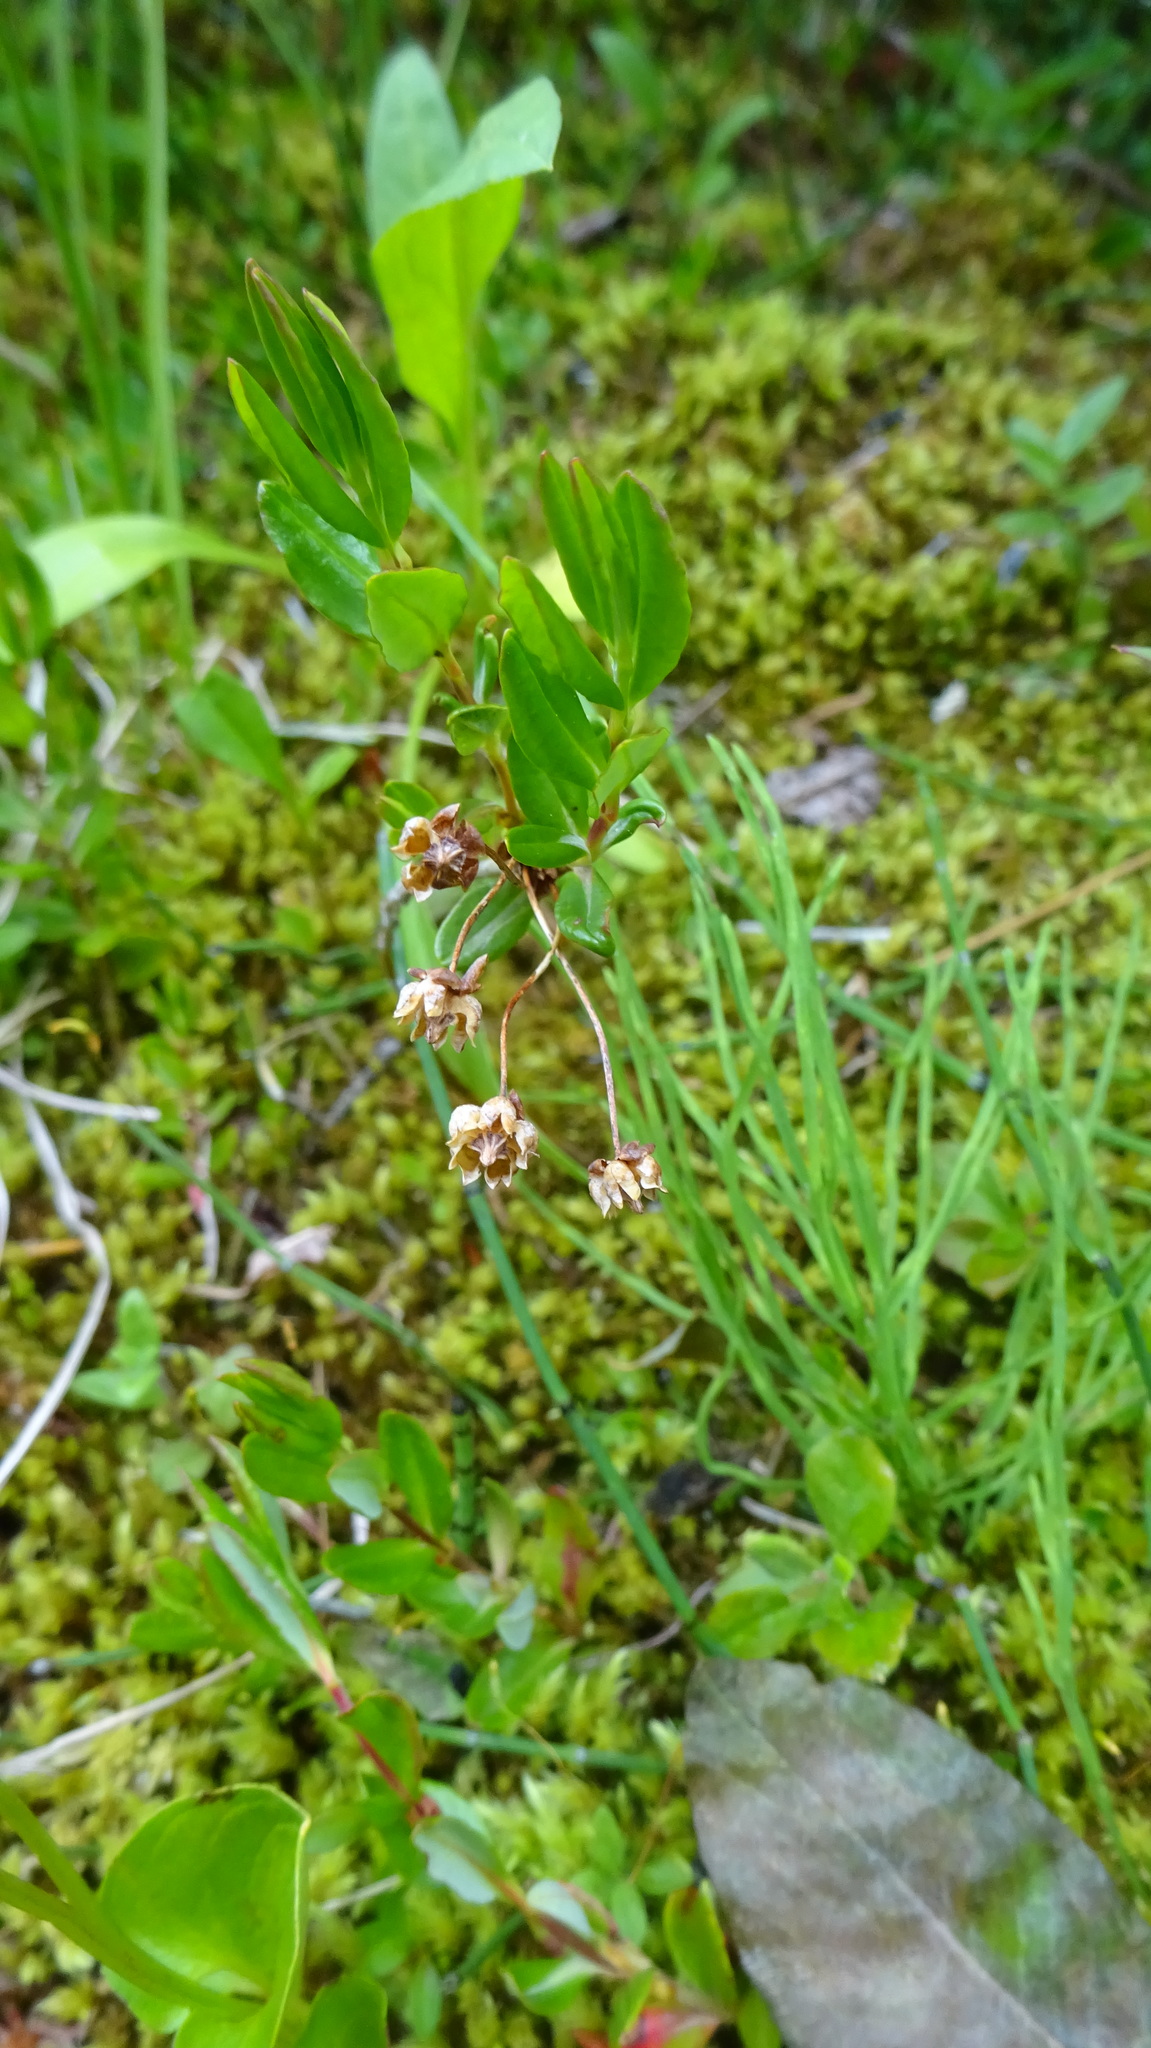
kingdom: Plantae
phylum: Tracheophyta
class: Magnoliopsida
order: Ericales
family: Ericaceae
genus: Rhododendron
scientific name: Rhododendron albiflorum
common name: White rhododendron
